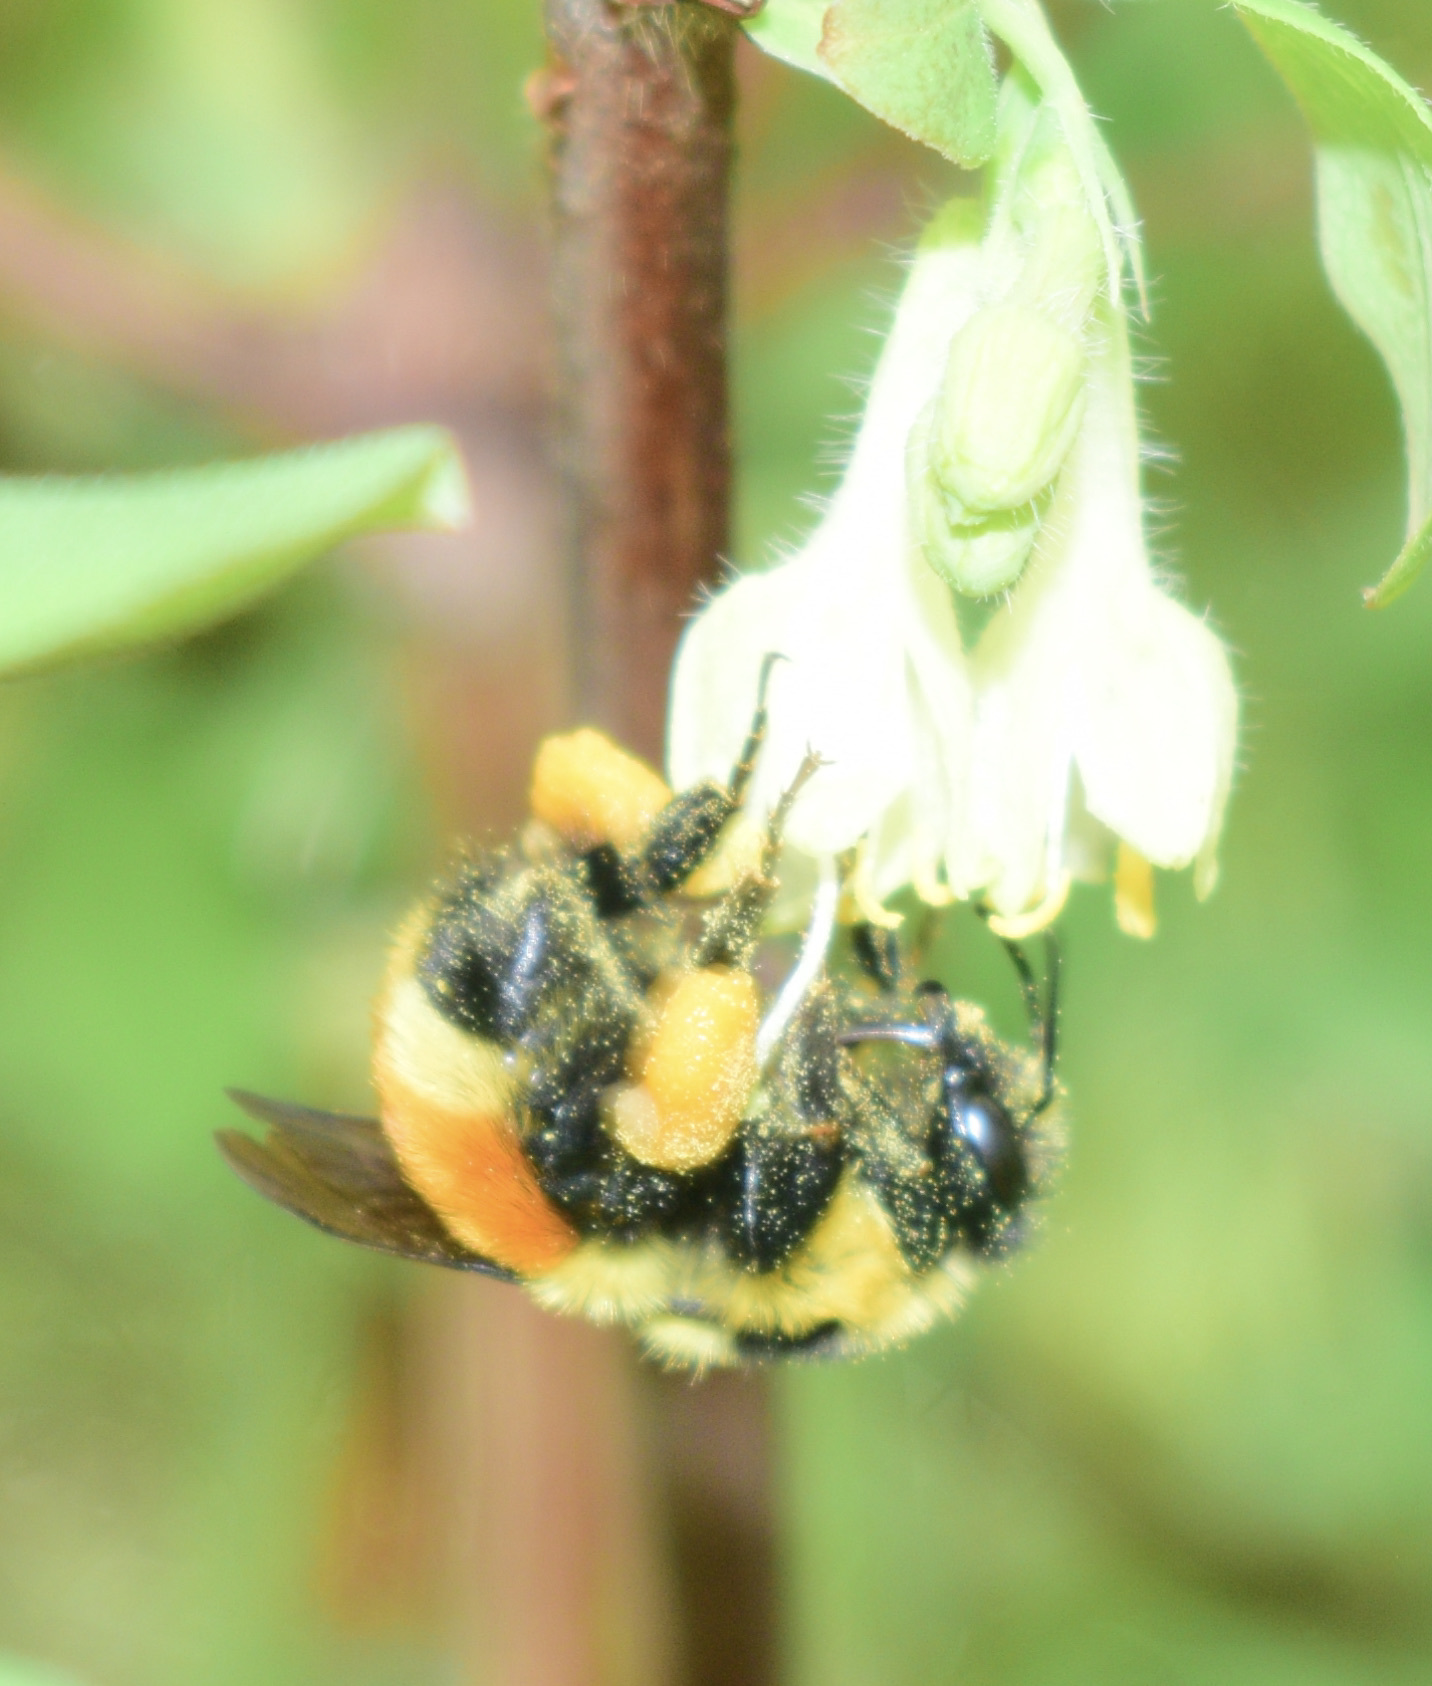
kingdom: Animalia
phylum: Arthropoda
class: Insecta
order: Hymenoptera
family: Apidae
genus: Bombus
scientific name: Bombus ternarius
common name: Tri-colored bumble bee
